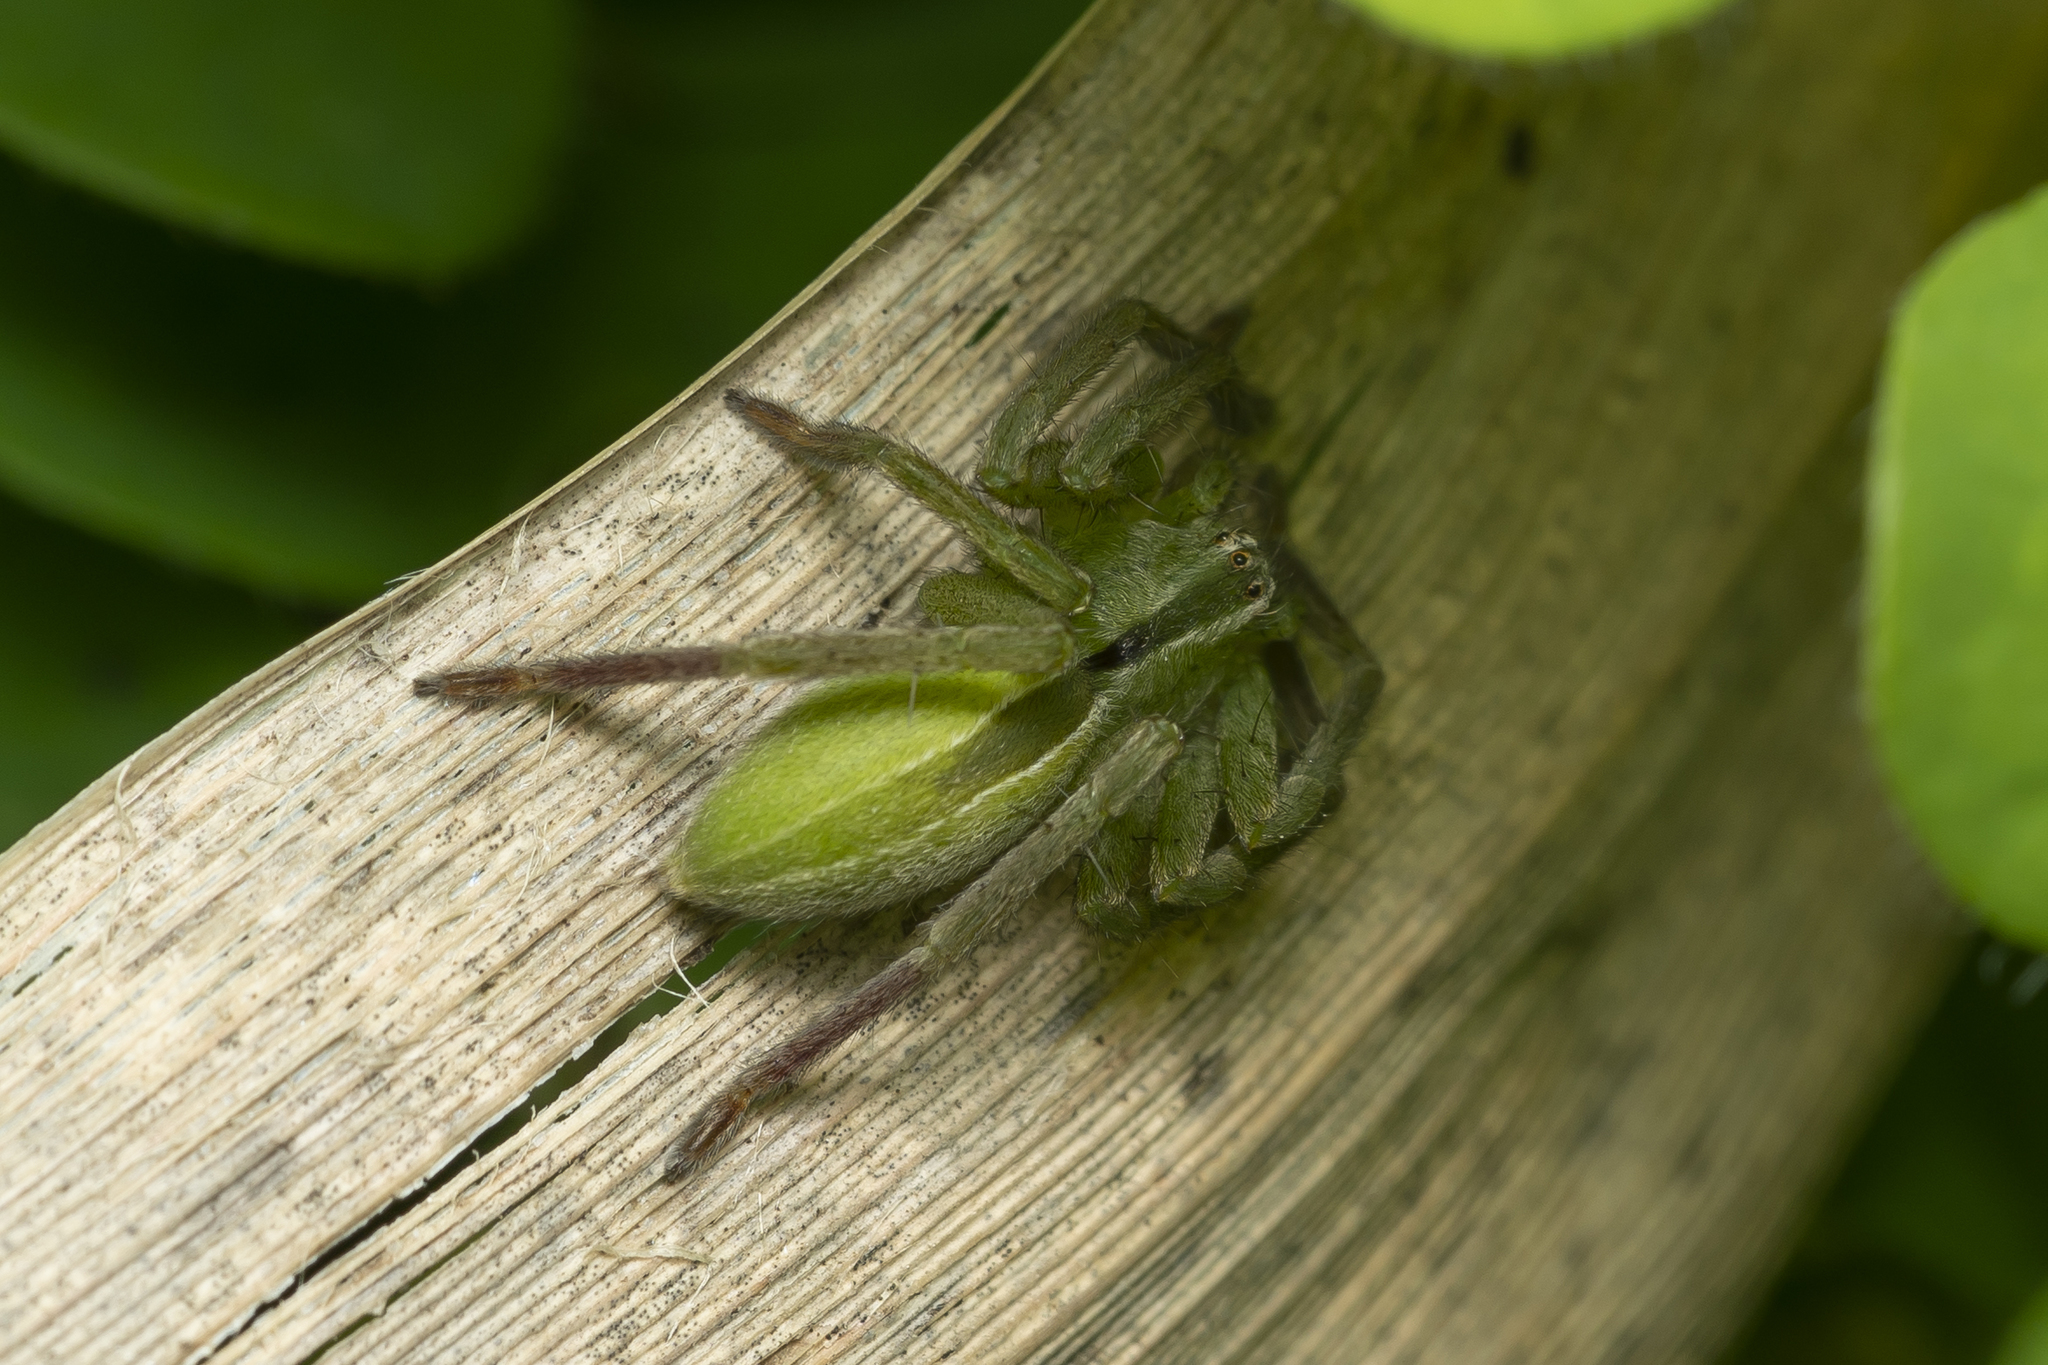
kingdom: Animalia
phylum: Arthropoda
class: Arachnida
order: Araneae
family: Sparassidae
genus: Micrommata
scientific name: Micrommata ligurina
